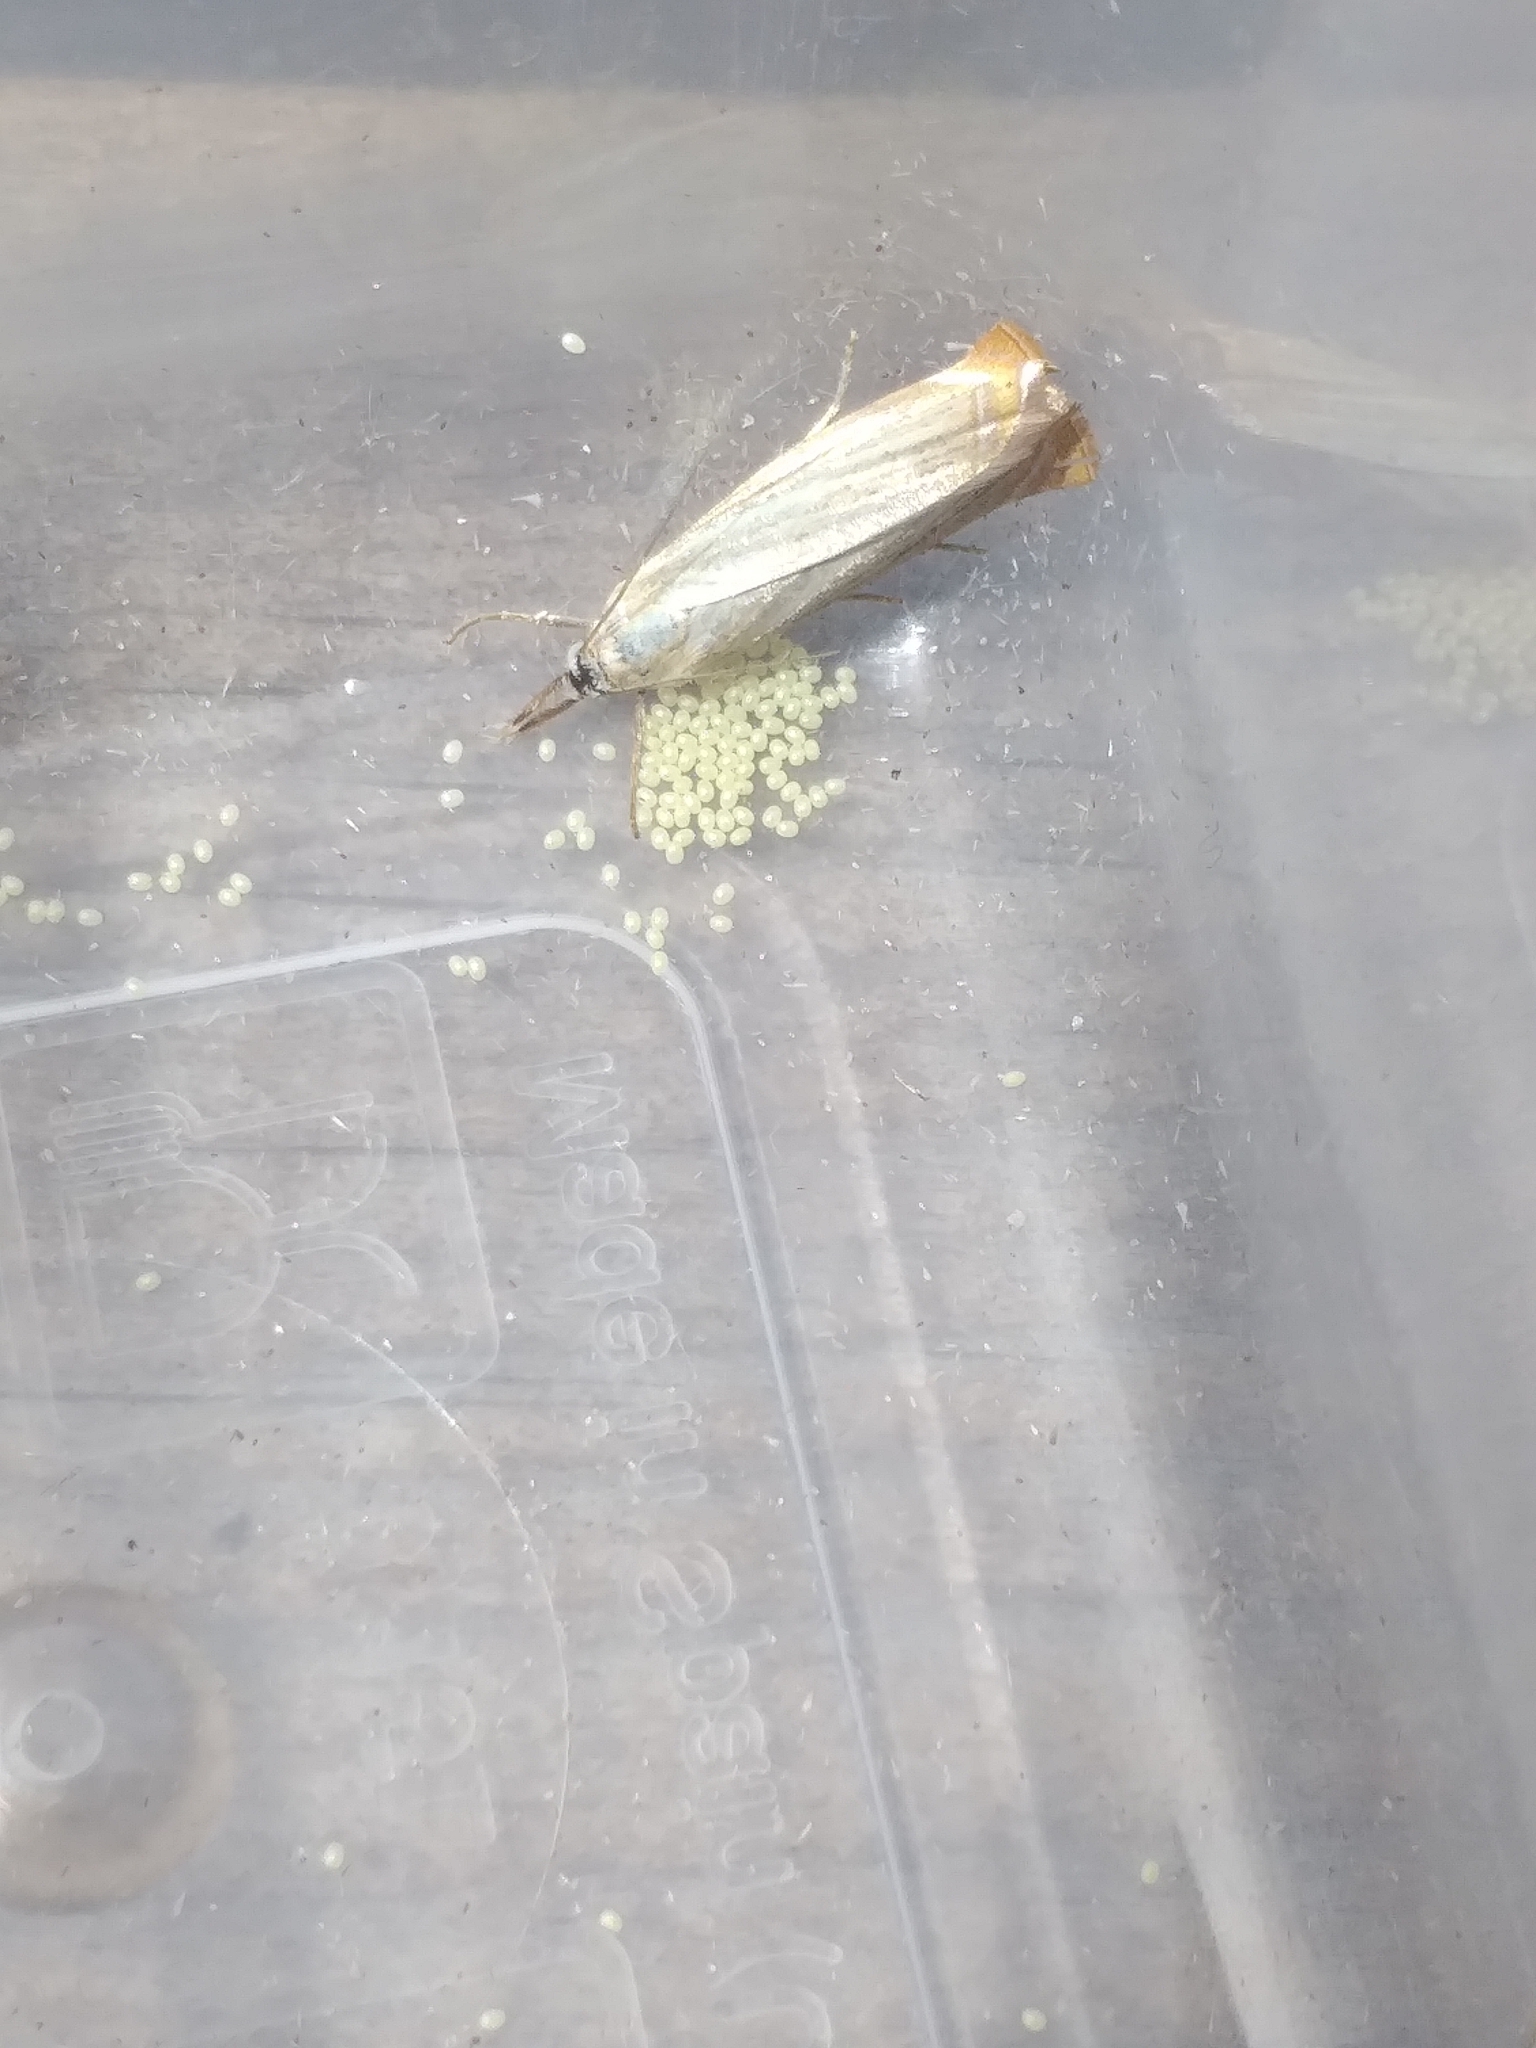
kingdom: Animalia
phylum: Arthropoda
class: Insecta
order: Lepidoptera
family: Crambidae
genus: Chrysoteuchia
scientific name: Chrysoteuchia culmella
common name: Garden grass-veneer
